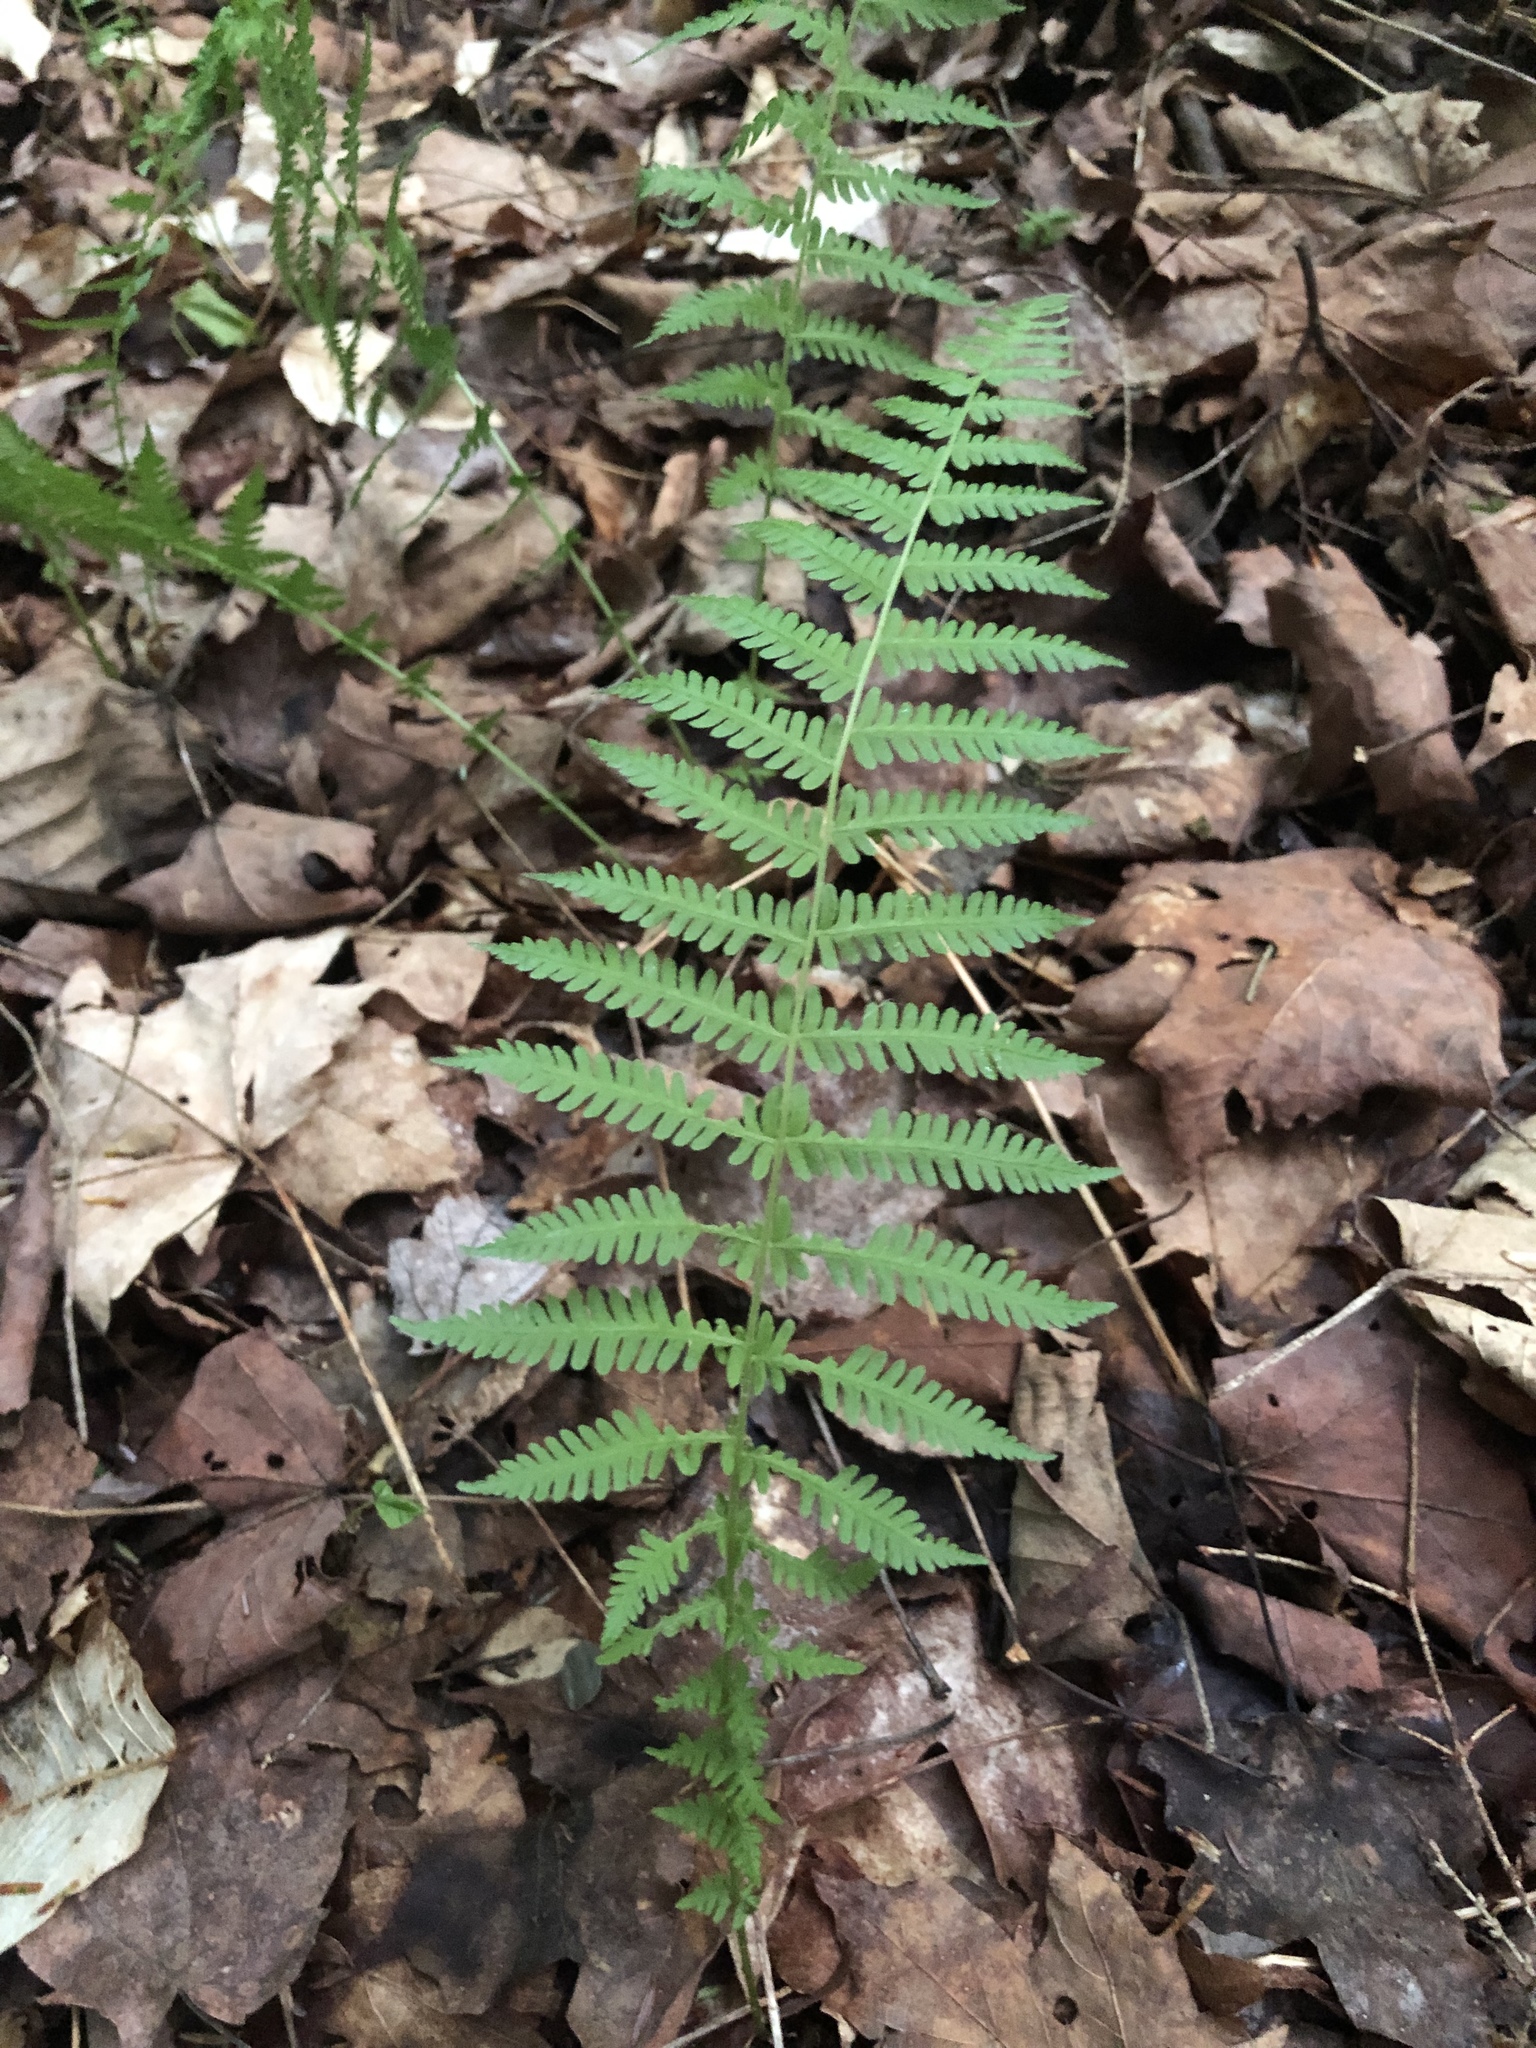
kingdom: Plantae
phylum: Tracheophyta
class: Polypodiopsida
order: Polypodiales
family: Thelypteridaceae
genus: Amauropelta
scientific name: Amauropelta noveboracensis
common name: New york fern
